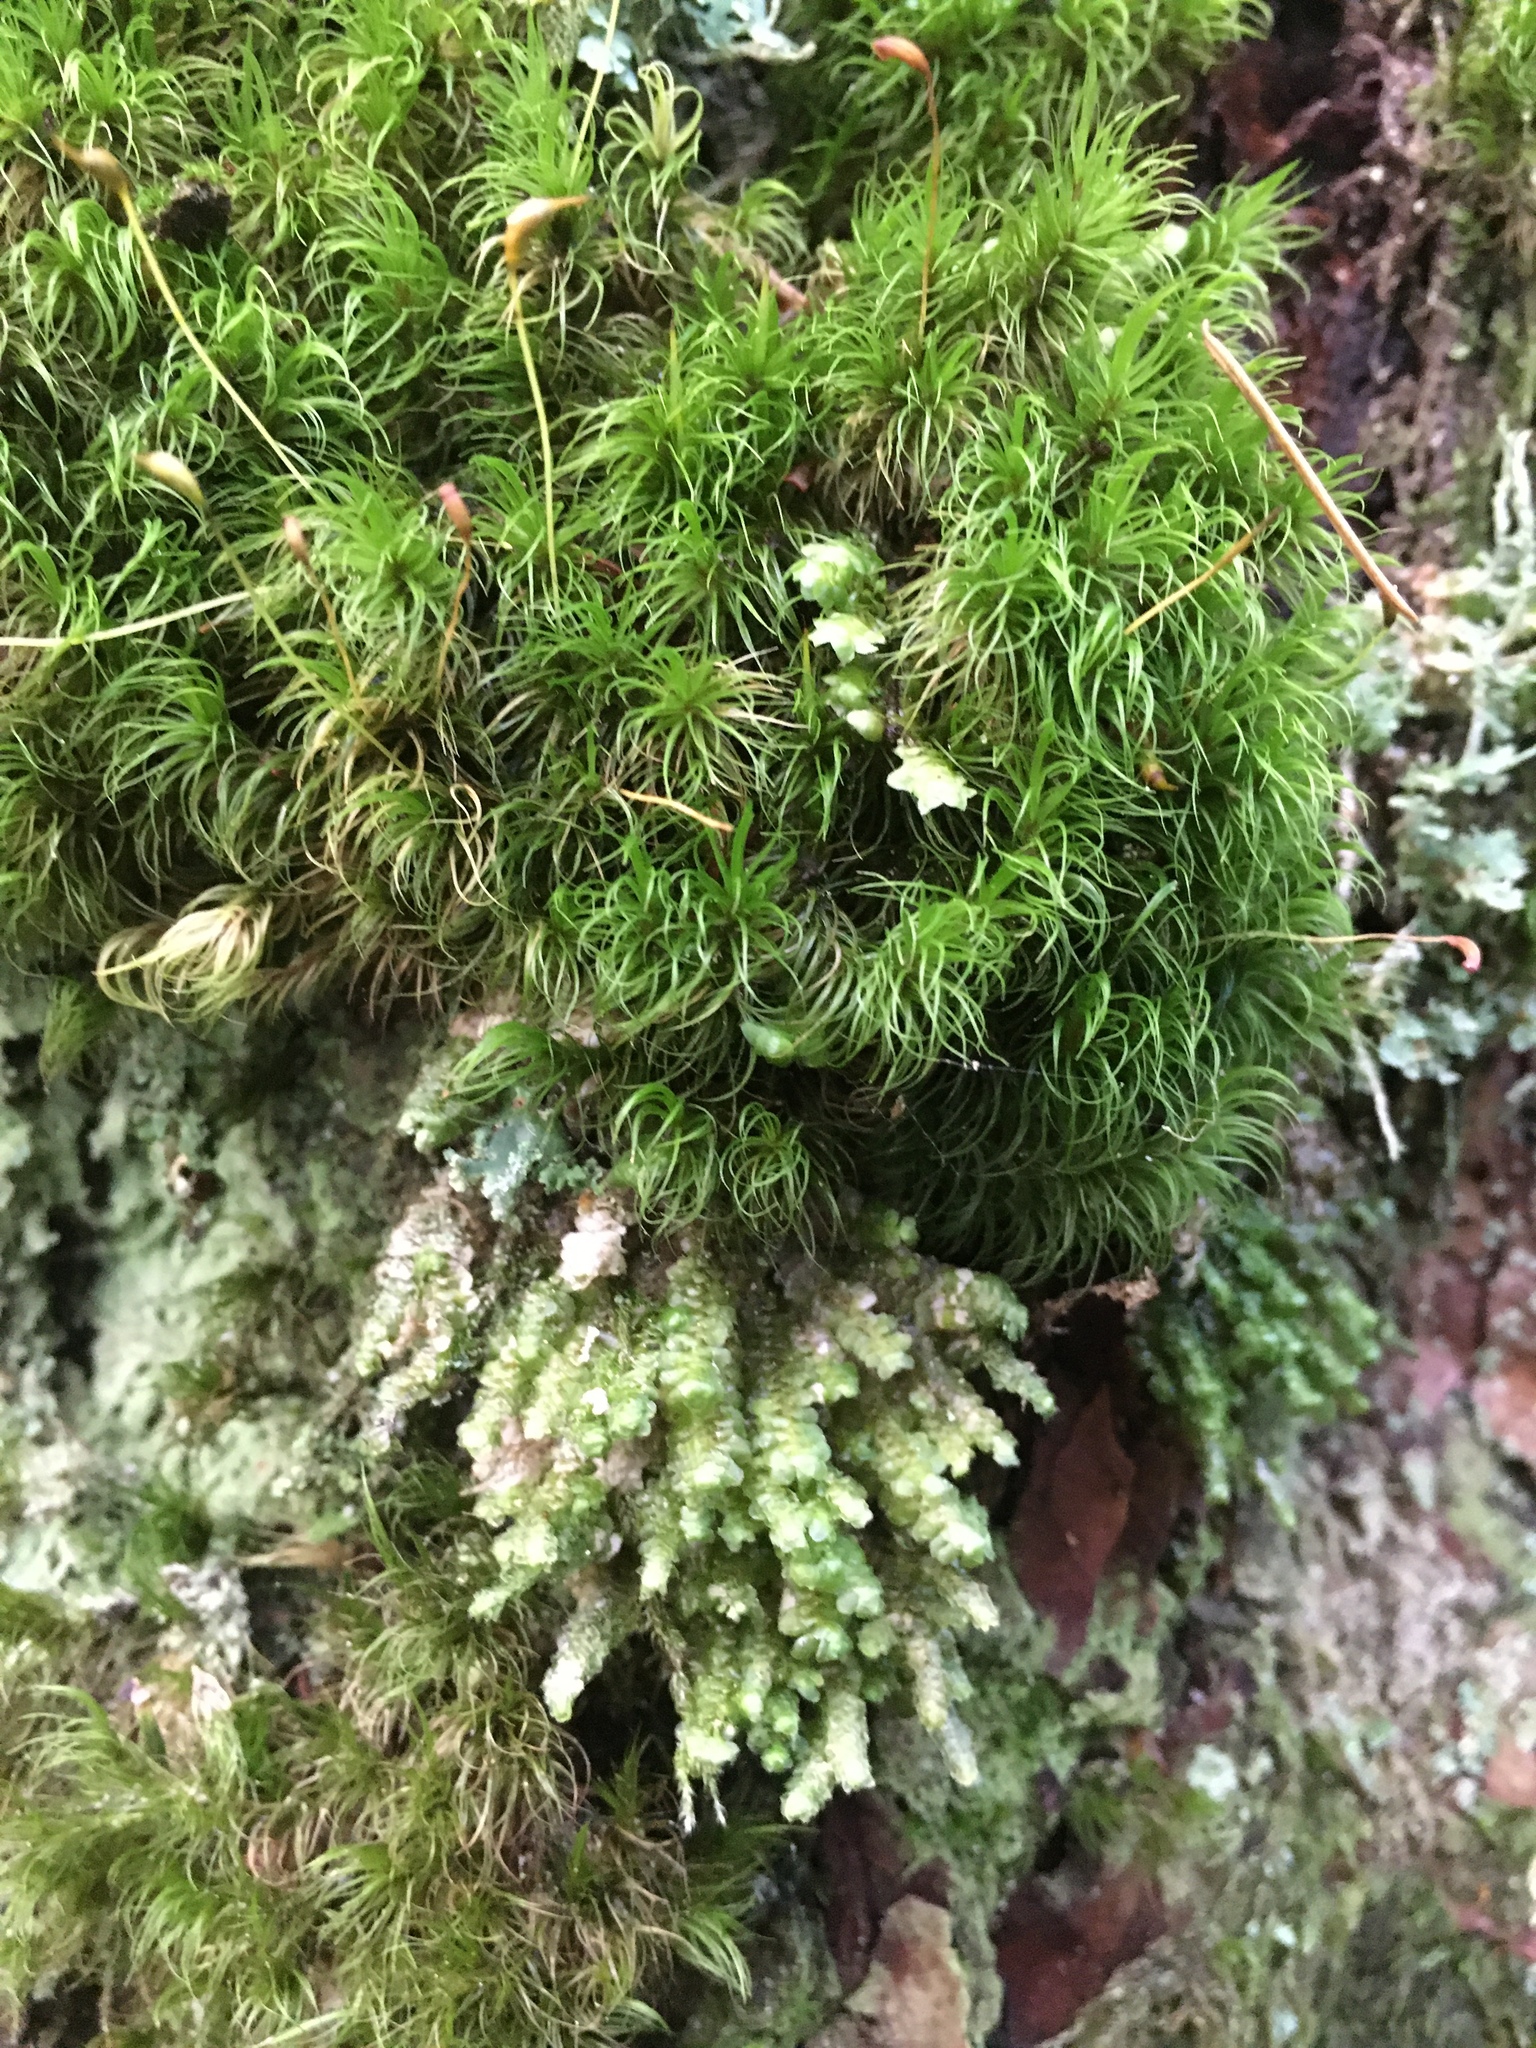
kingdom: Plantae
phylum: Bryophyta
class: Bryopsida
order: Dicranales
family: Dicranaceae
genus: Dicranum
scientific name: Dicranum fuscescens
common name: Curly heron's-bill moss
